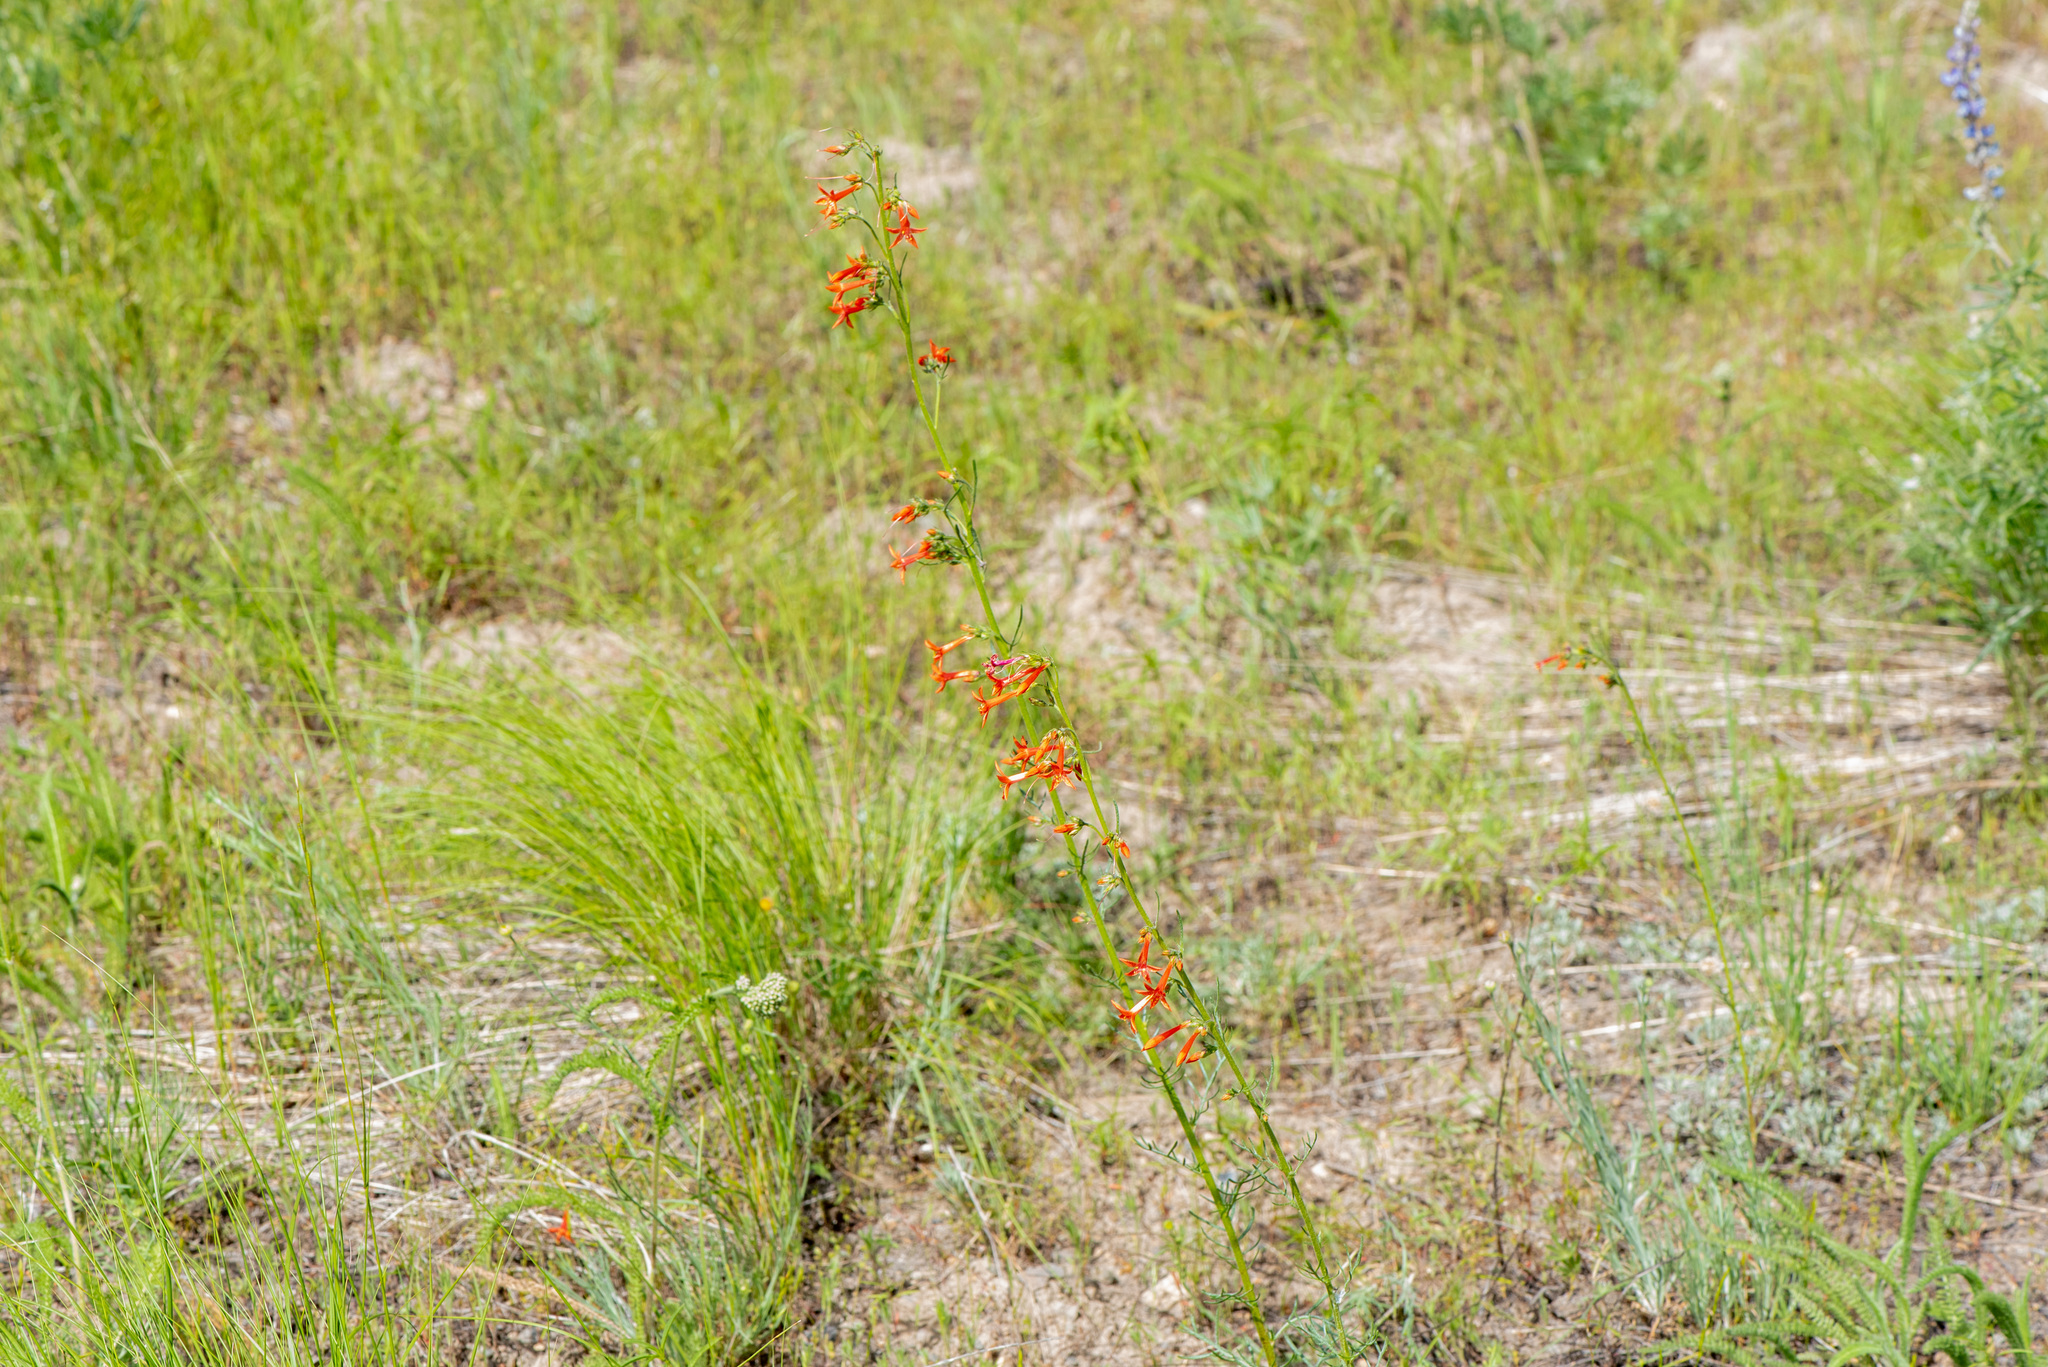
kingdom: Plantae
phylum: Tracheophyta
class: Magnoliopsida
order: Ericales
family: Polemoniaceae
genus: Ipomopsis
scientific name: Ipomopsis aggregata
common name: Scarlet gilia
